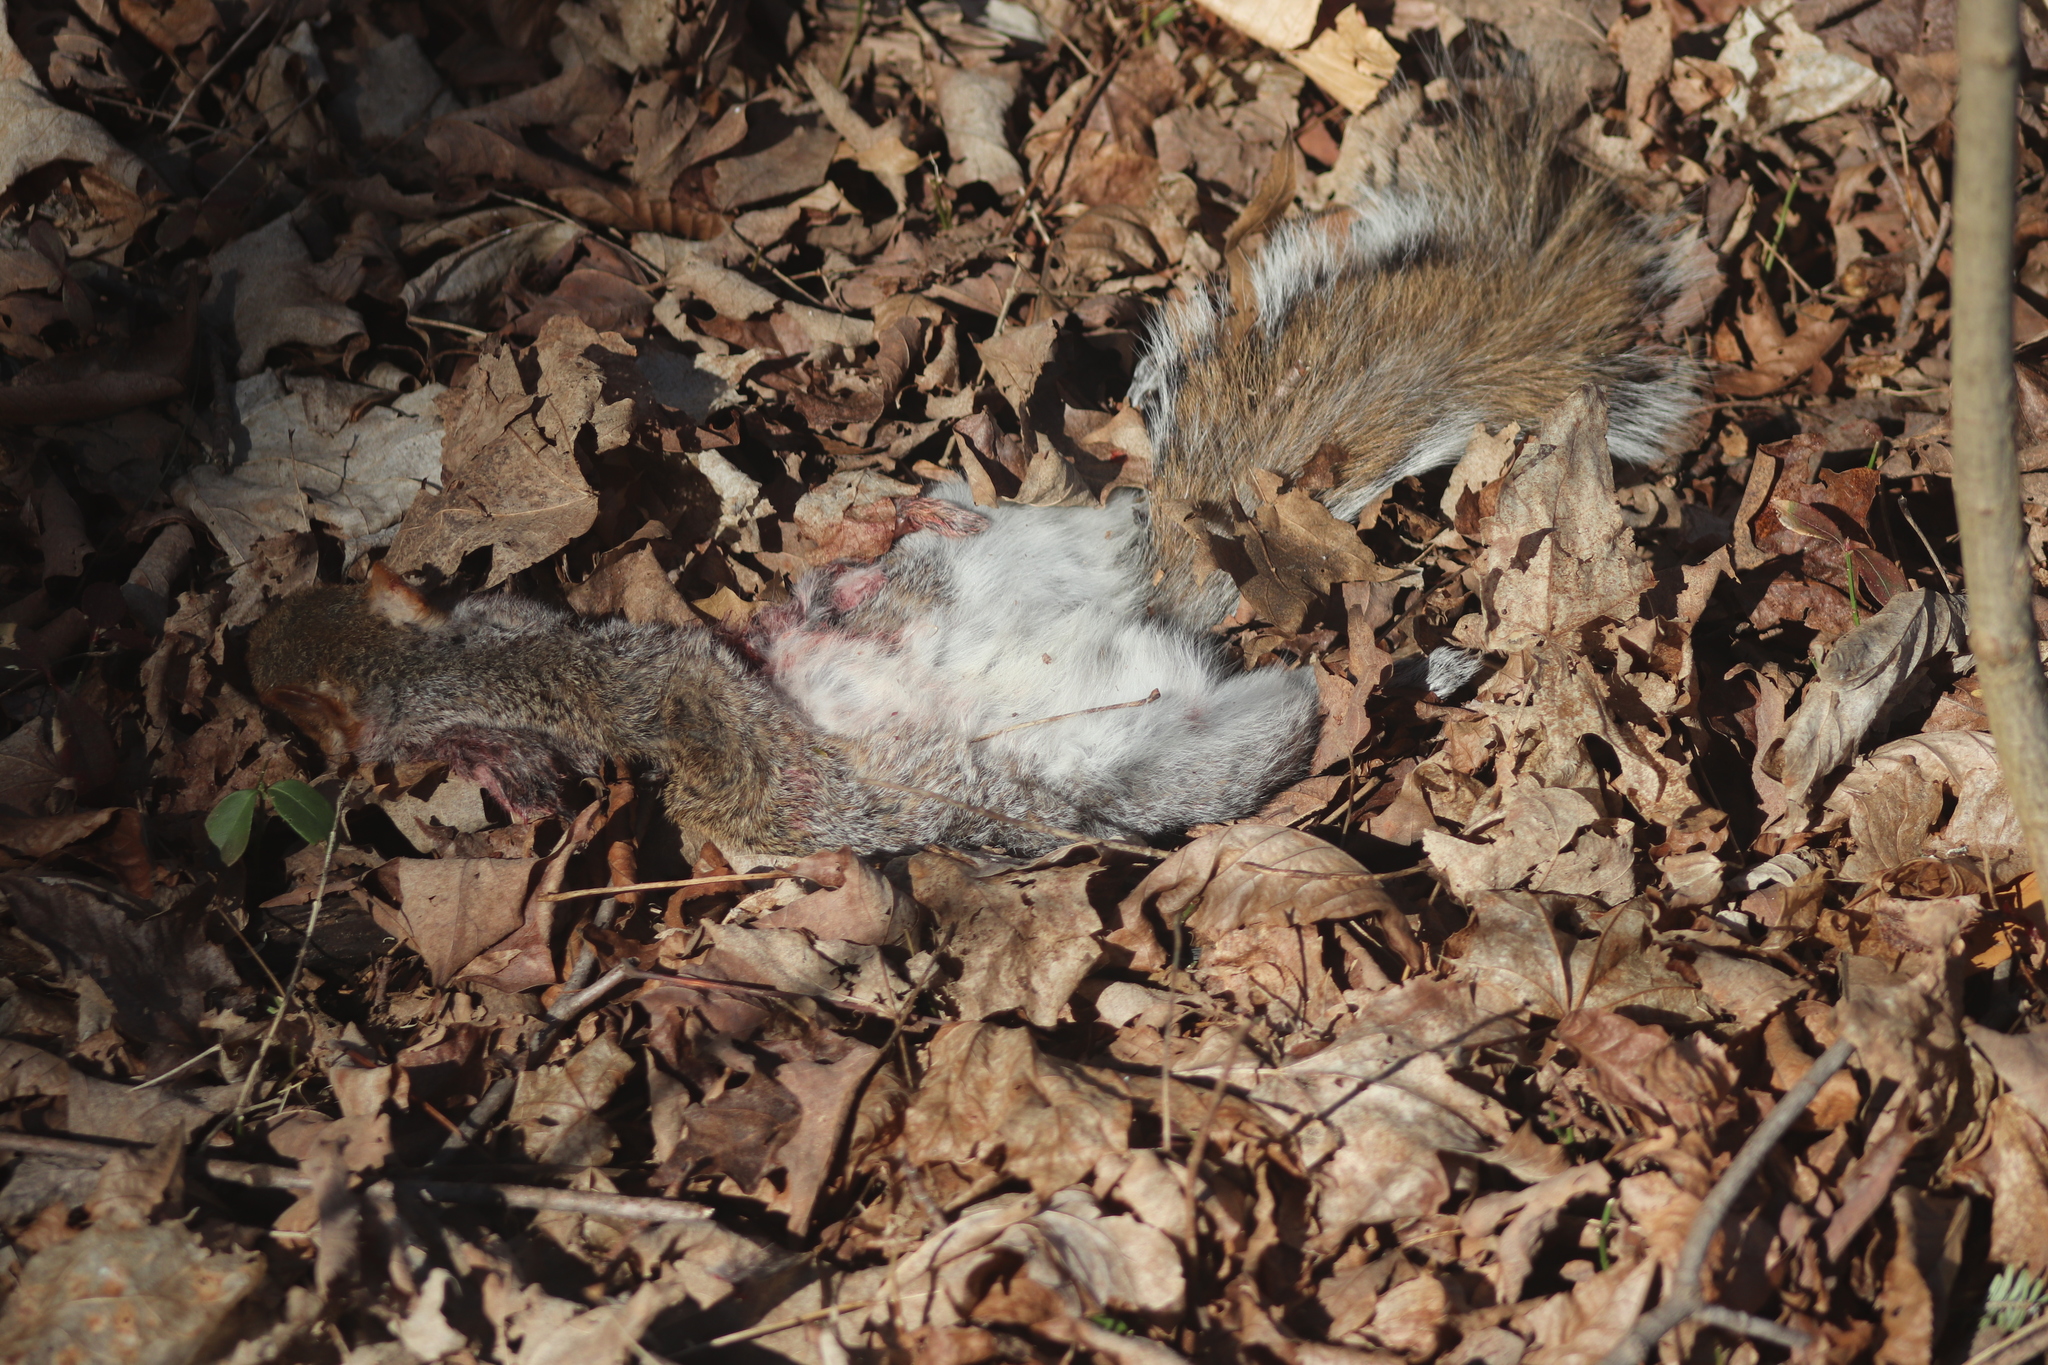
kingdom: Animalia
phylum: Chordata
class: Mammalia
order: Rodentia
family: Sciuridae
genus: Sciurus
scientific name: Sciurus carolinensis
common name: Eastern gray squirrel
